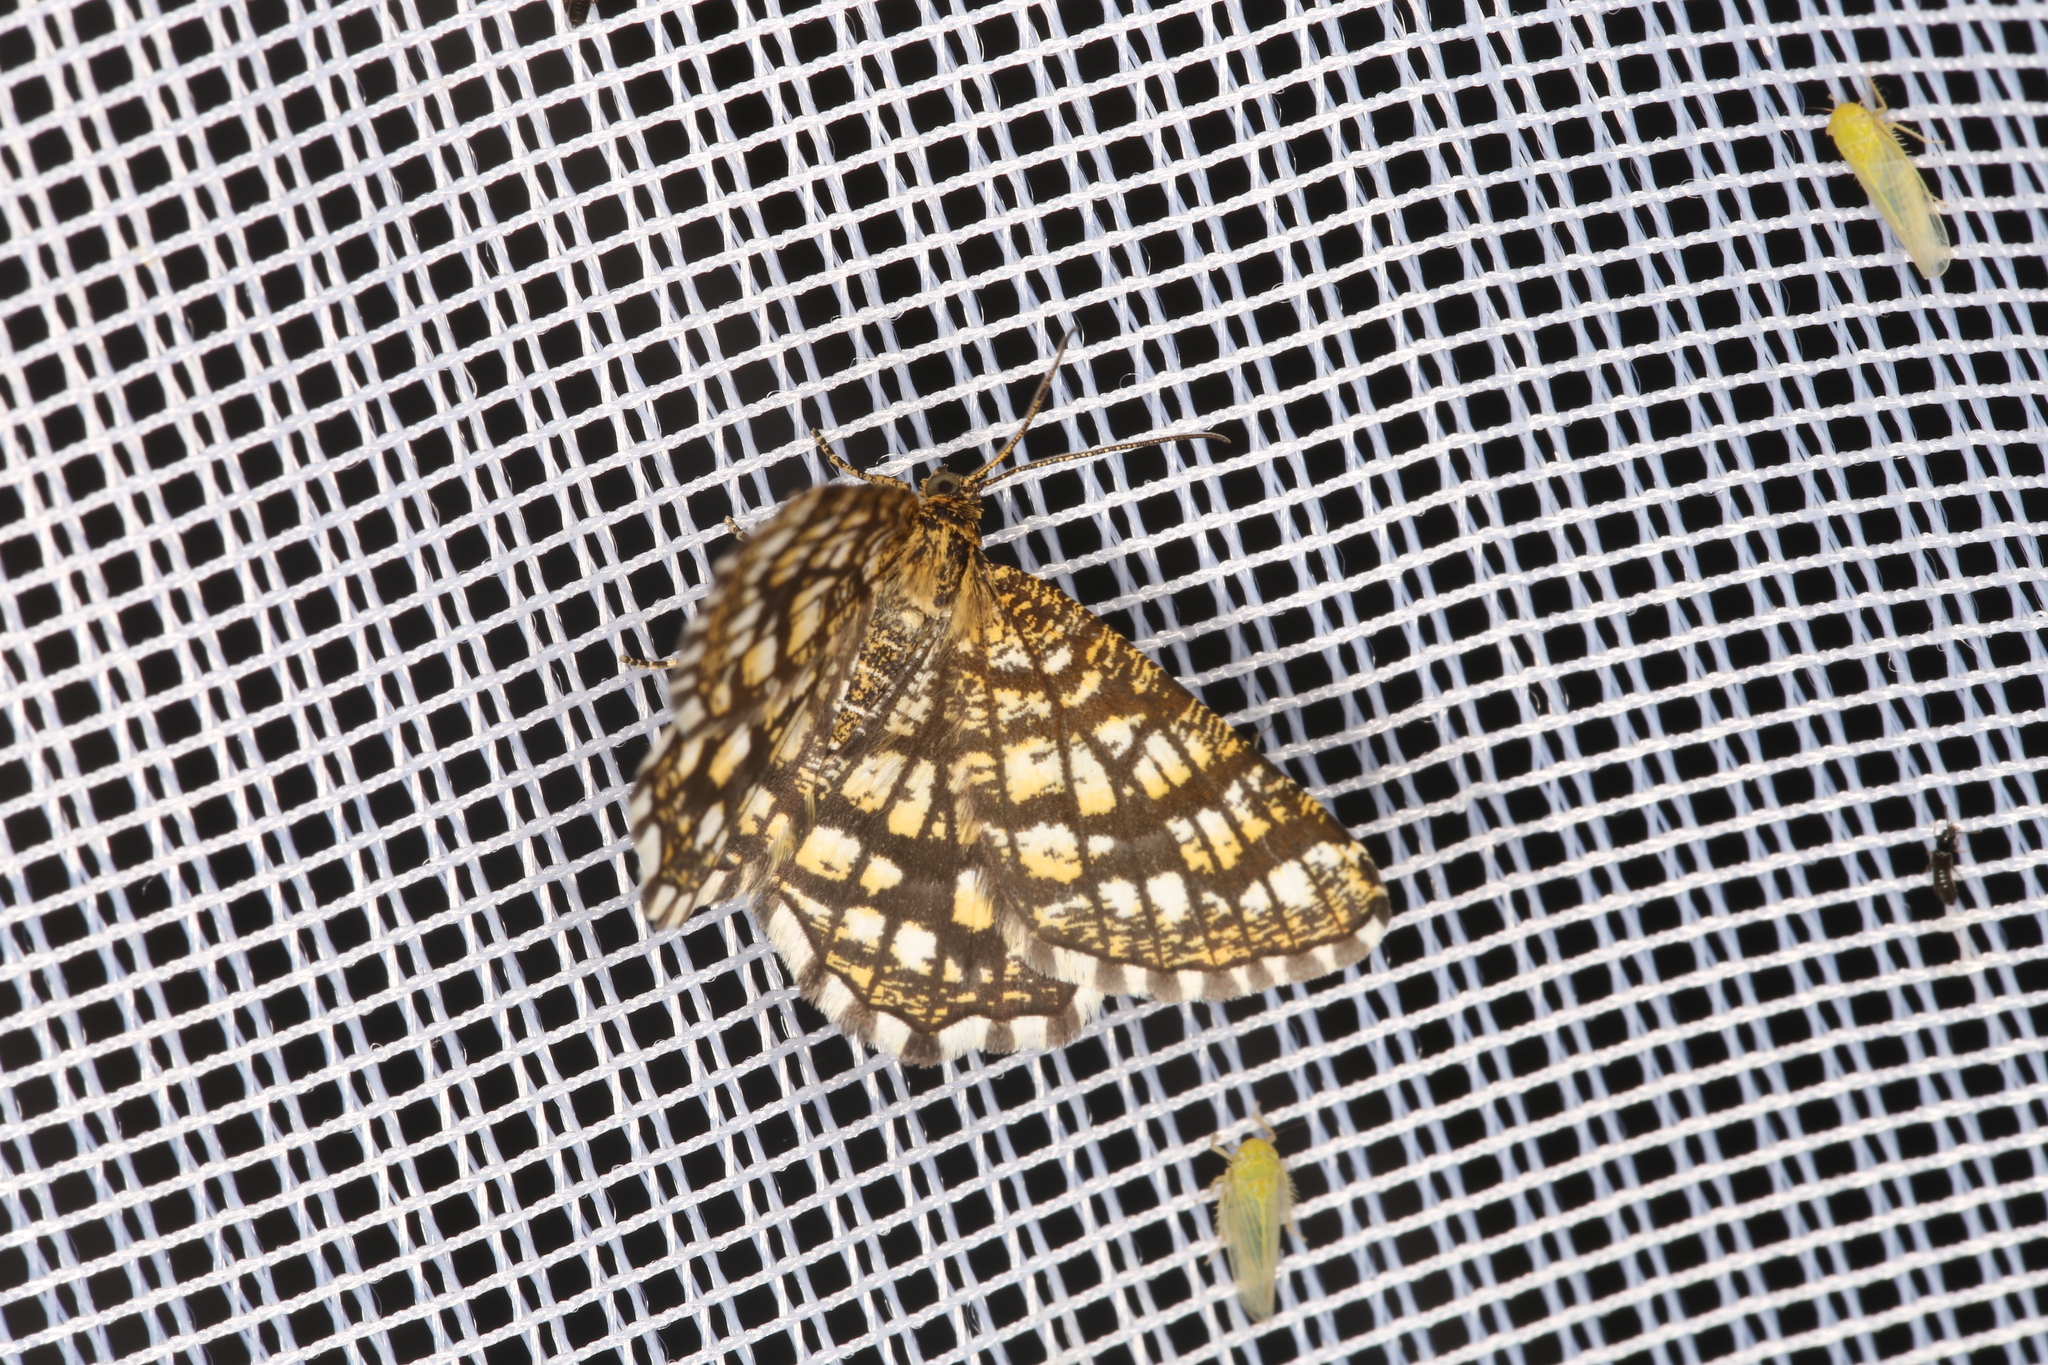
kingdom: Animalia
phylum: Arthropoda
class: Insecta
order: Lepidoptera
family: Geometridae
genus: Chiasmia
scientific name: Chiasmia clathrata
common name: Latticed heath
